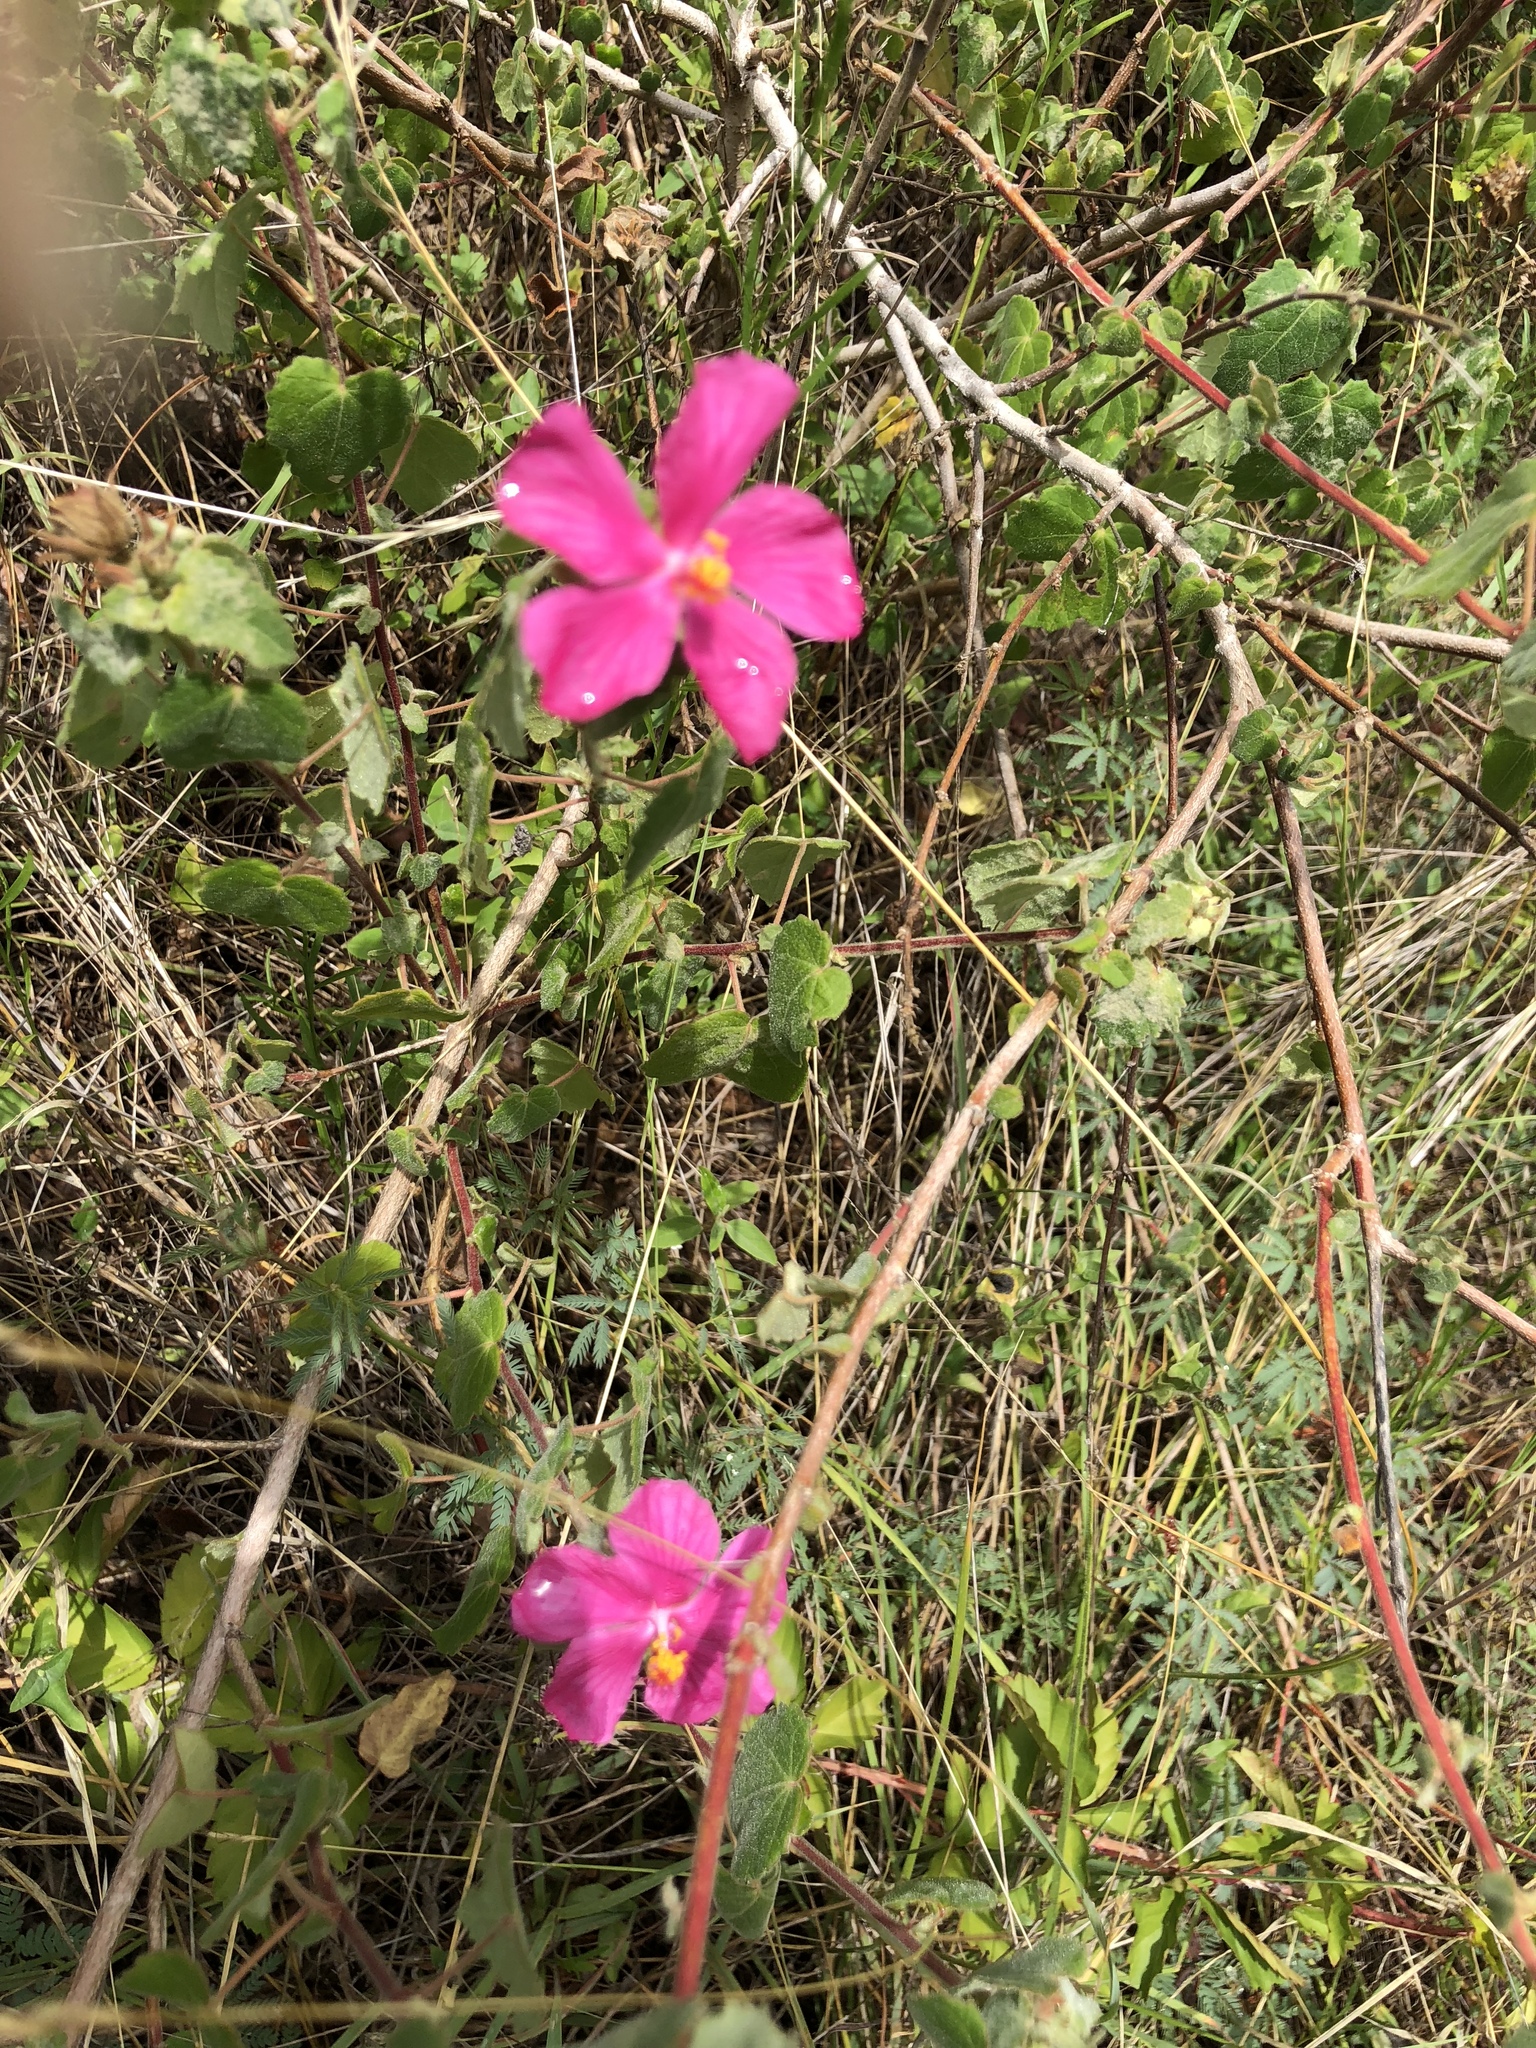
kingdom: Plantae
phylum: Tracheophyta
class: Magnoliopsida
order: Malvales
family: Malvaceae
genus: Pavonia
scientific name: Pavonia lasiopetala
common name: Texas swamp-mallow
